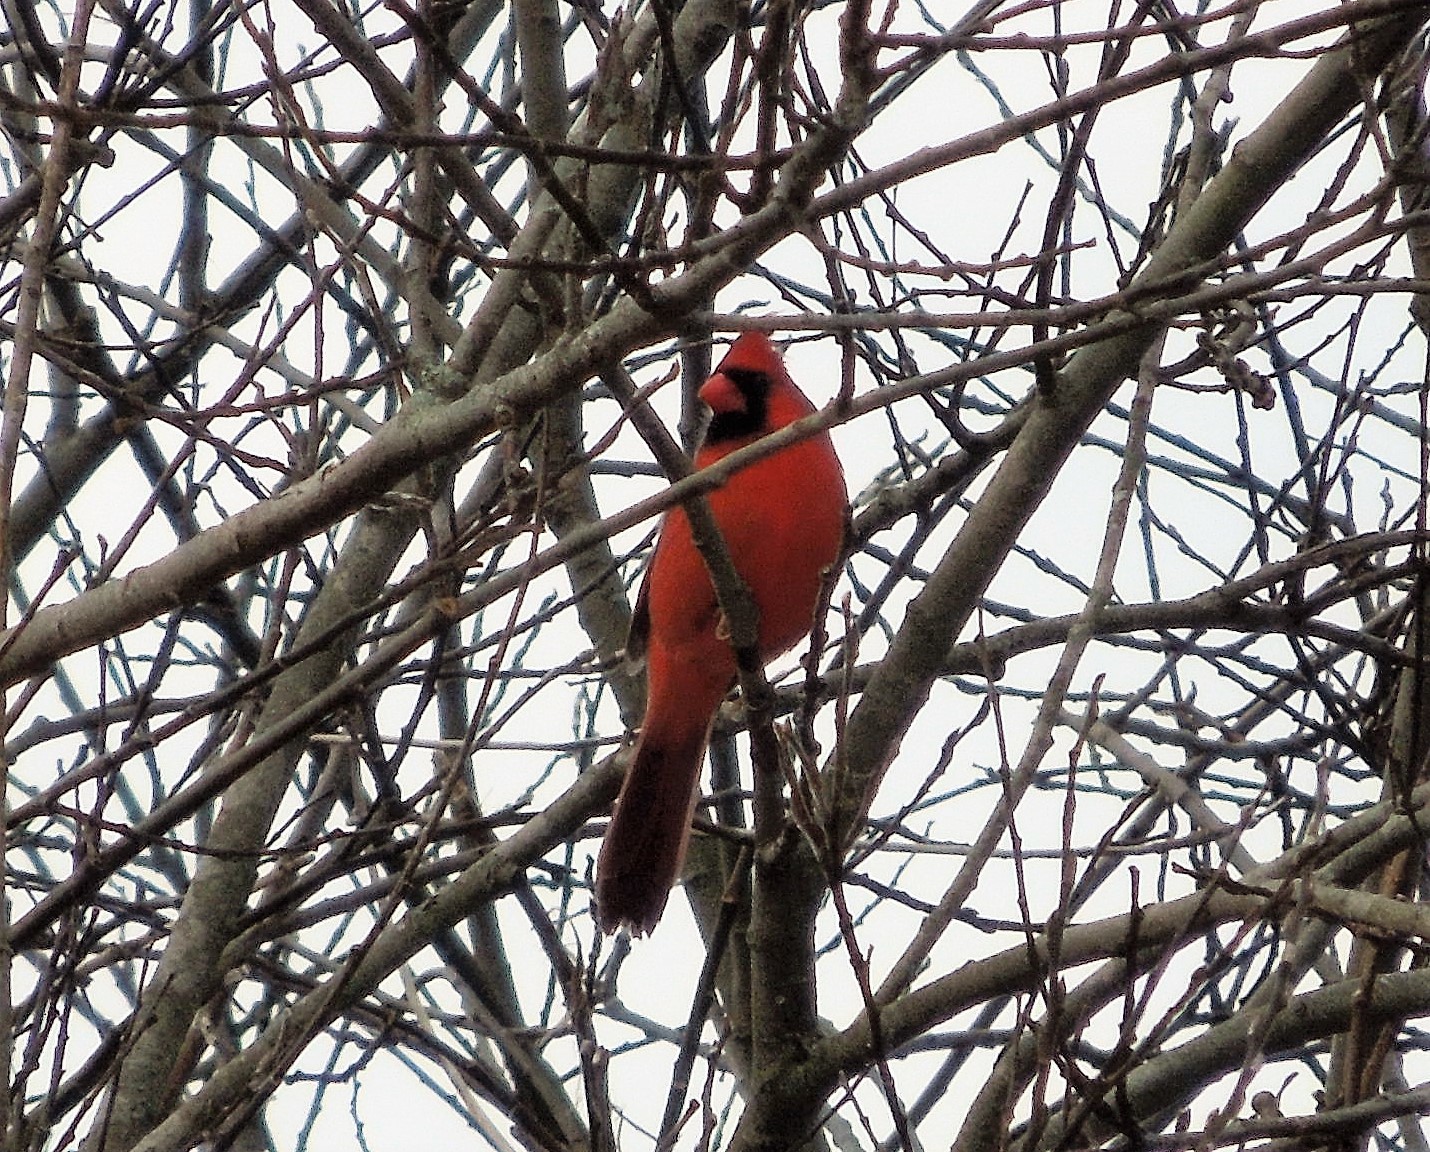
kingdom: Animalia
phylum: Chordata
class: Aves
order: Passeriformes
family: Cardinalidae
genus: Cardinalis
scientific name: Cardinalis cardinalis
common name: Northern cardinal
